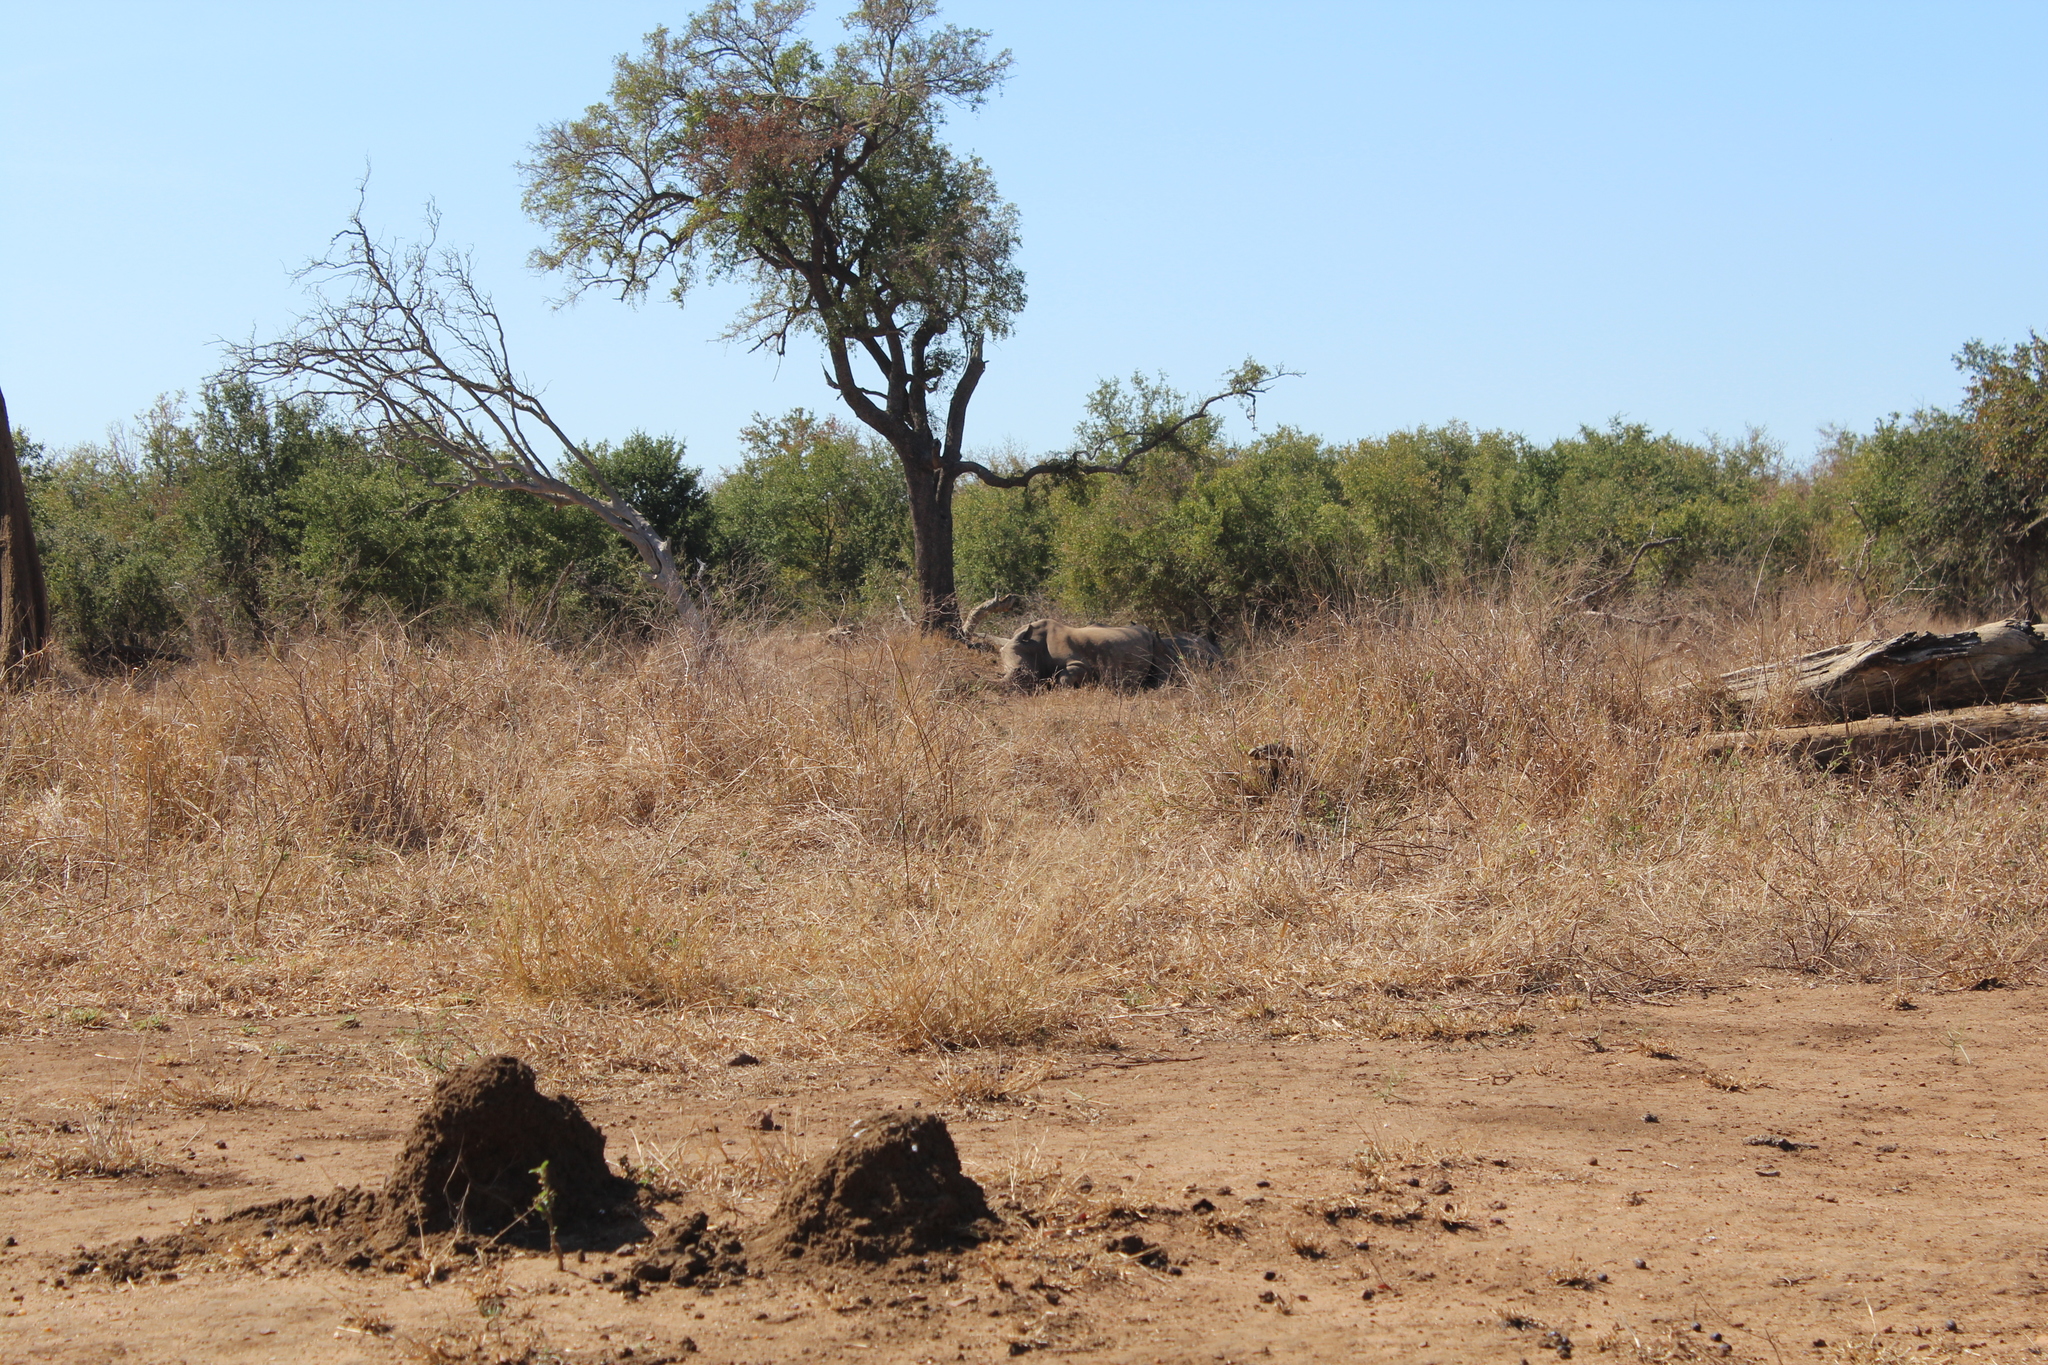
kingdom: Animalia
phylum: Chordata
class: Mammalia
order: Perissodactyla
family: Rhinocerotidae
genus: Ceratotherium
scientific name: Ceratotherium simum
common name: White rhinoceros
